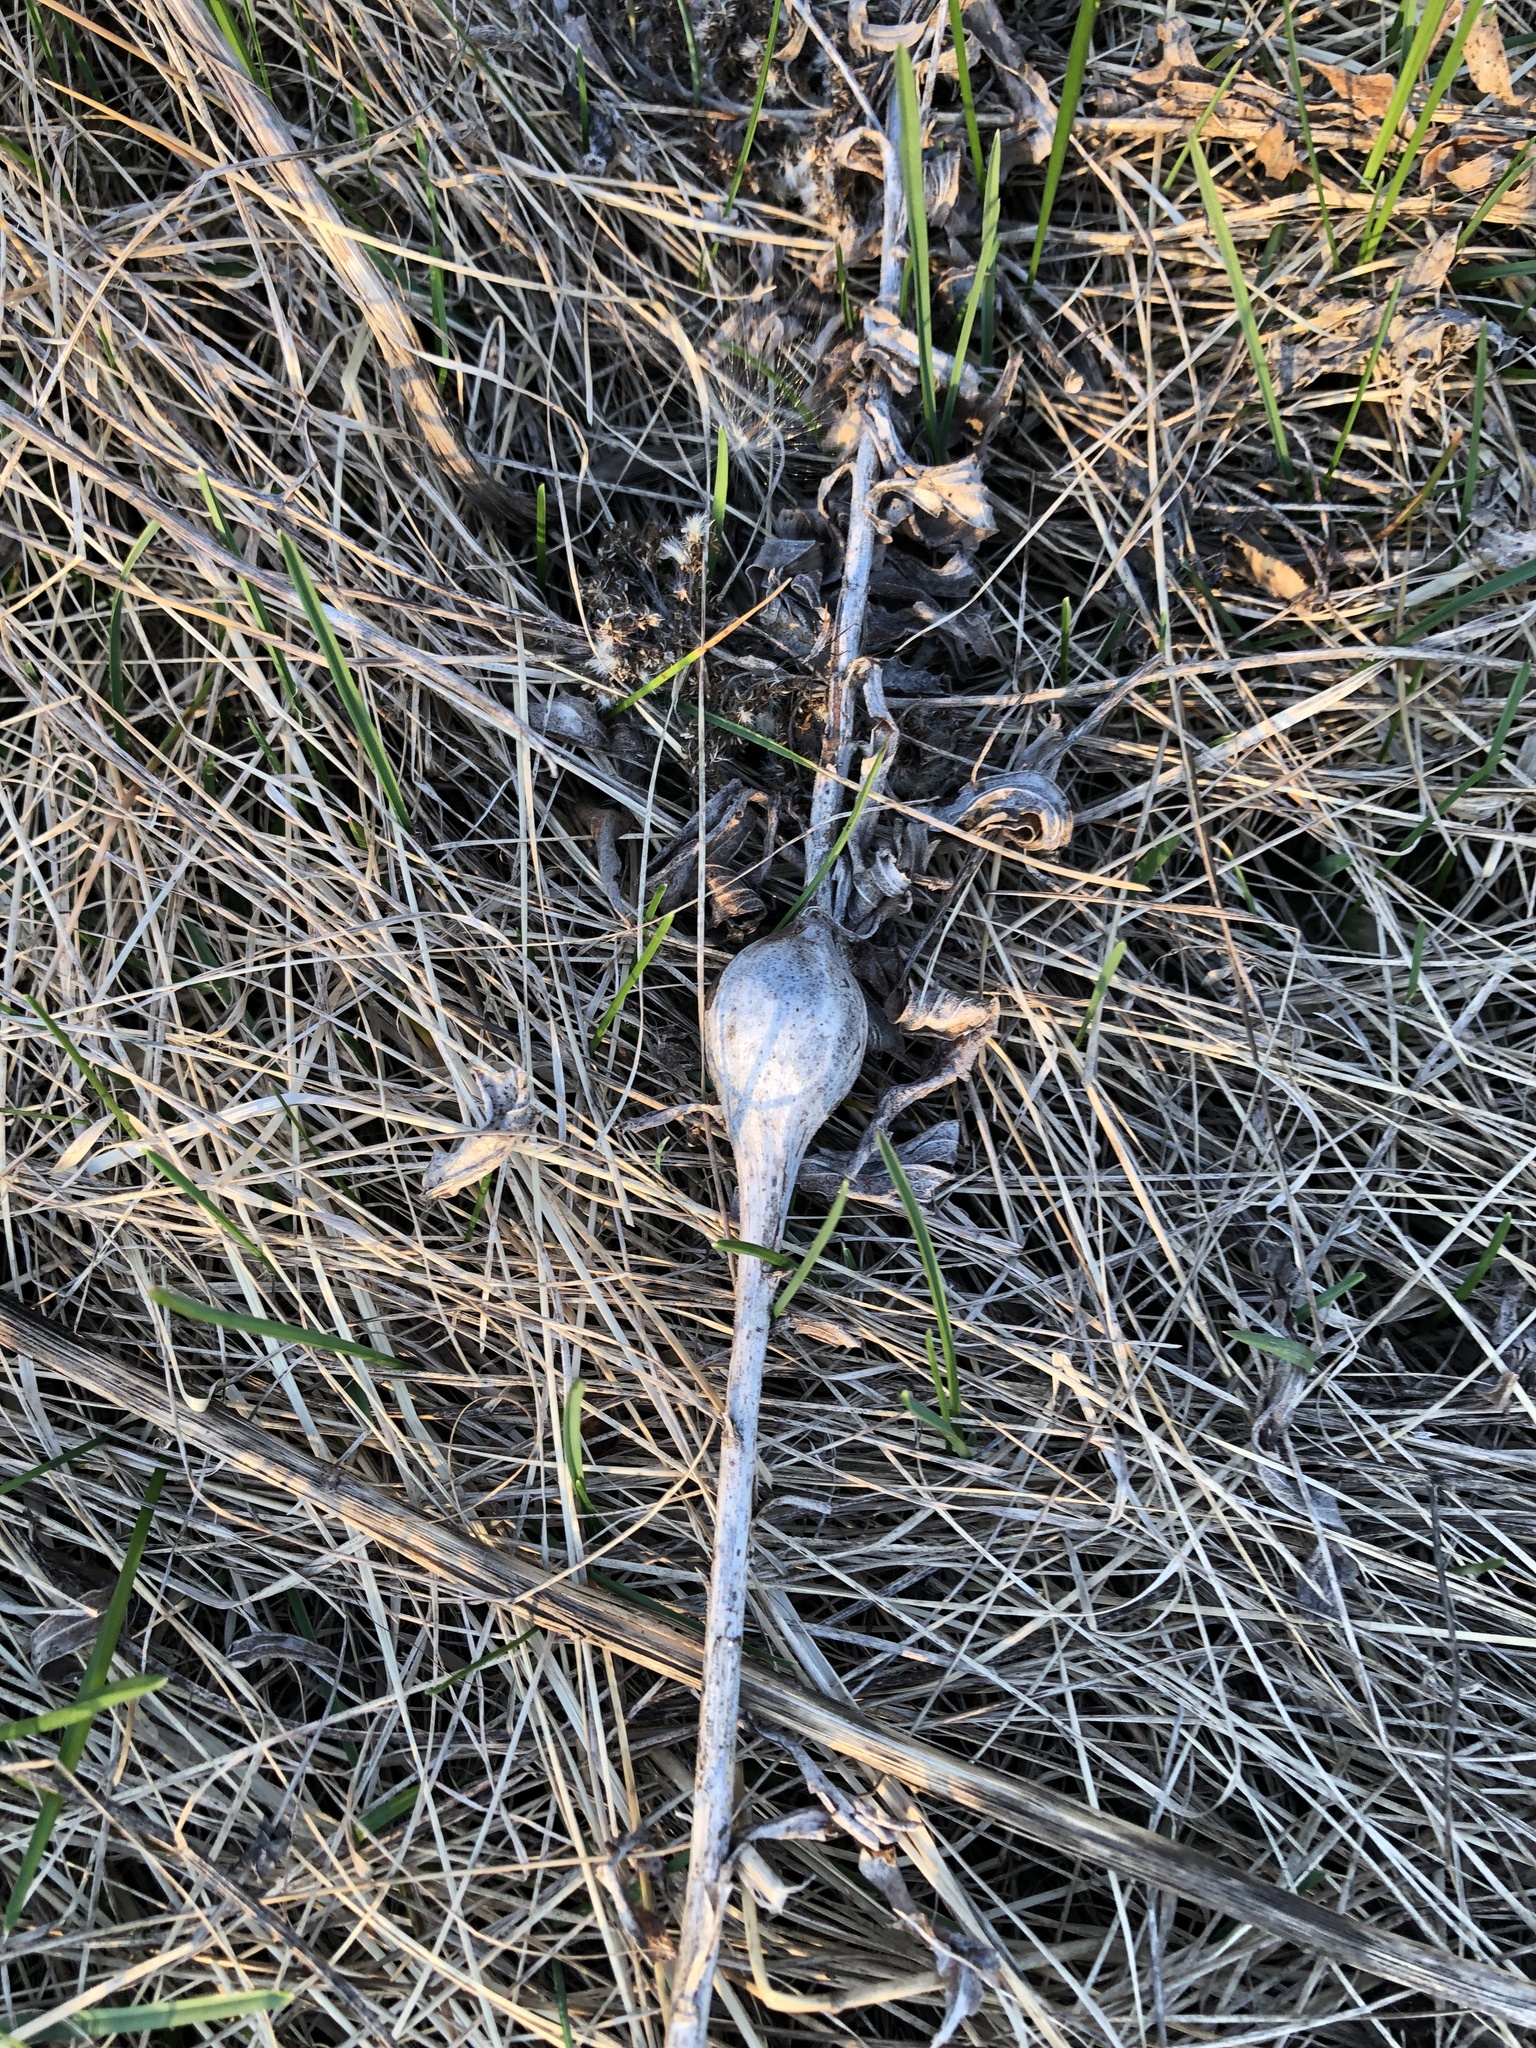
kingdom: Animalia
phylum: Arthropoda
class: Insecta
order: Diptera
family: Tephritidae
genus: Eurosta
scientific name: Eurosta solidaginis
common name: Goldenrod gall fly
